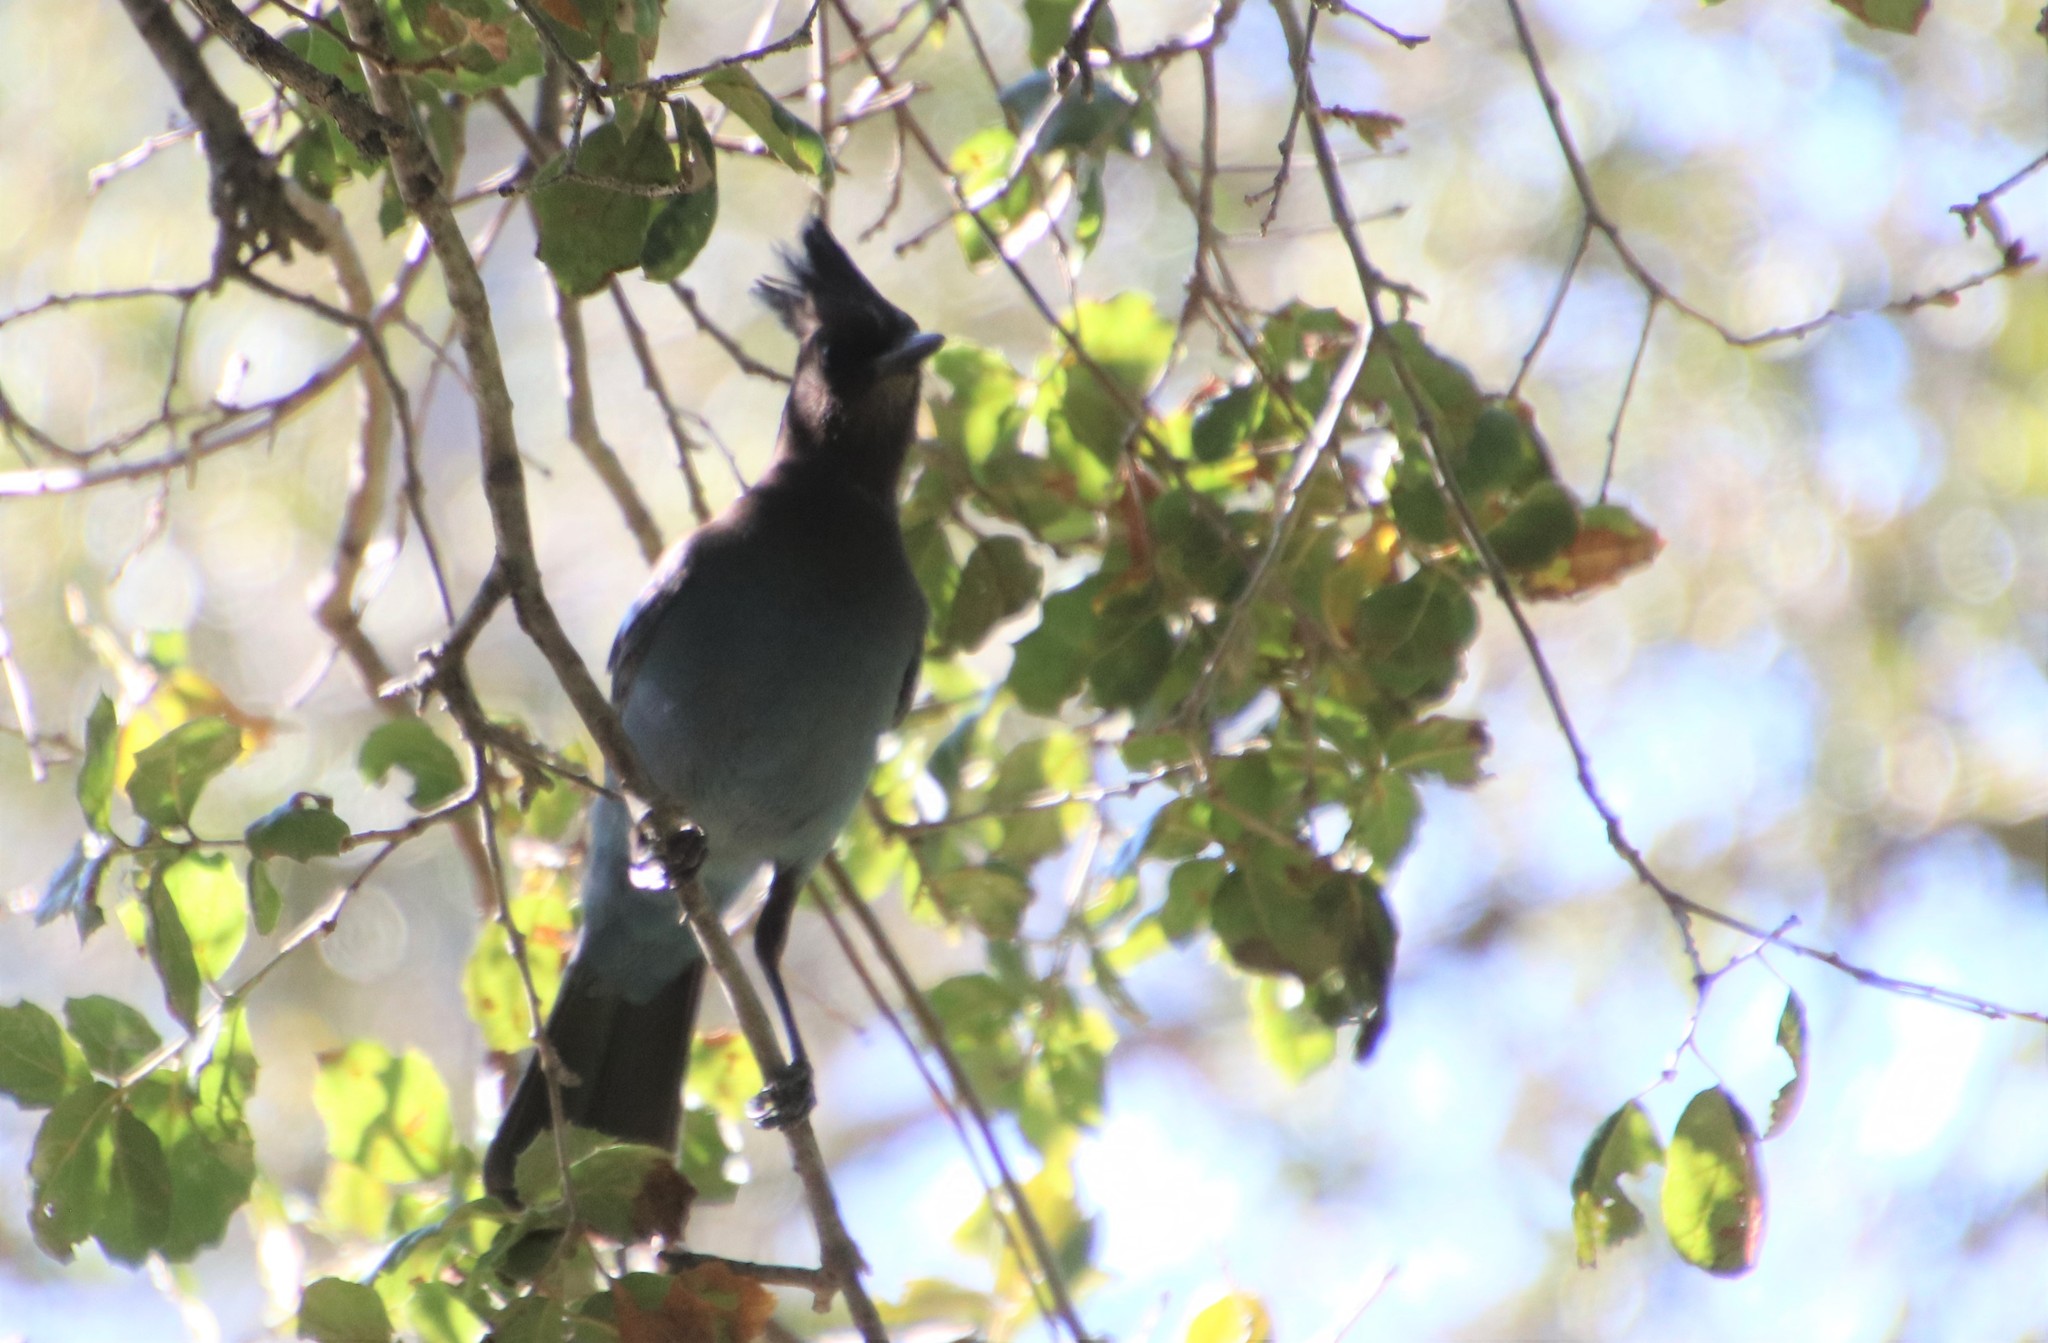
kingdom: Animalia
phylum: Chordata
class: Aves
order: Passeriformes
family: Corvidae
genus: Cyanocitta
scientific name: Cyanocitta stelleri
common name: Steller's jay
